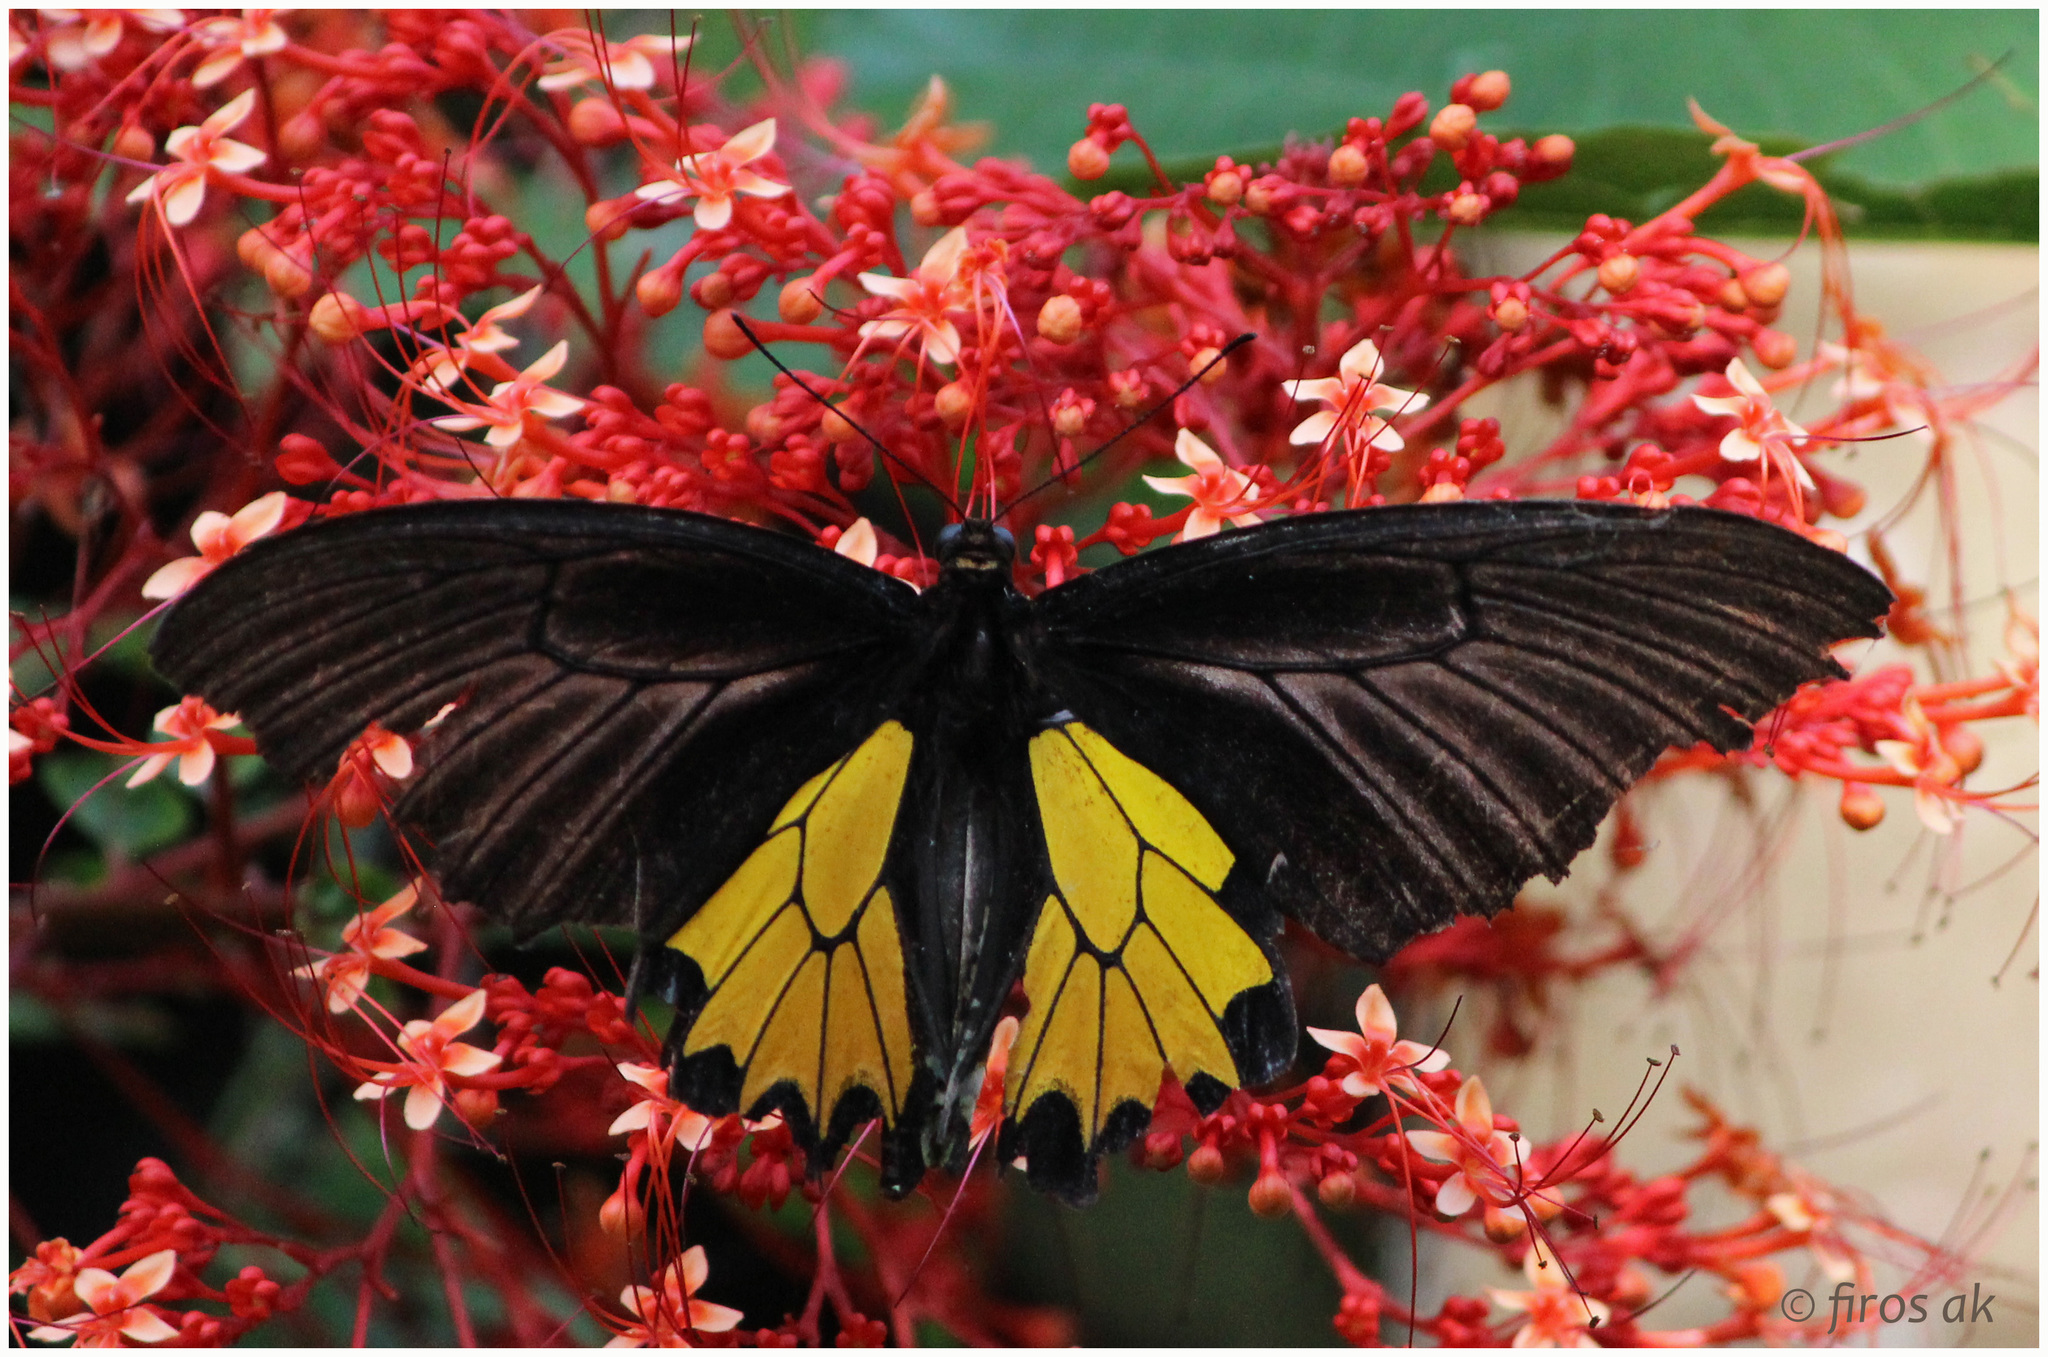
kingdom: Animalia
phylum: Arthropoda
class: Insecta
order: Lepidoptera
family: Papilionidae
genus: Troides
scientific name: Troides minos
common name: Malabar birdwing
